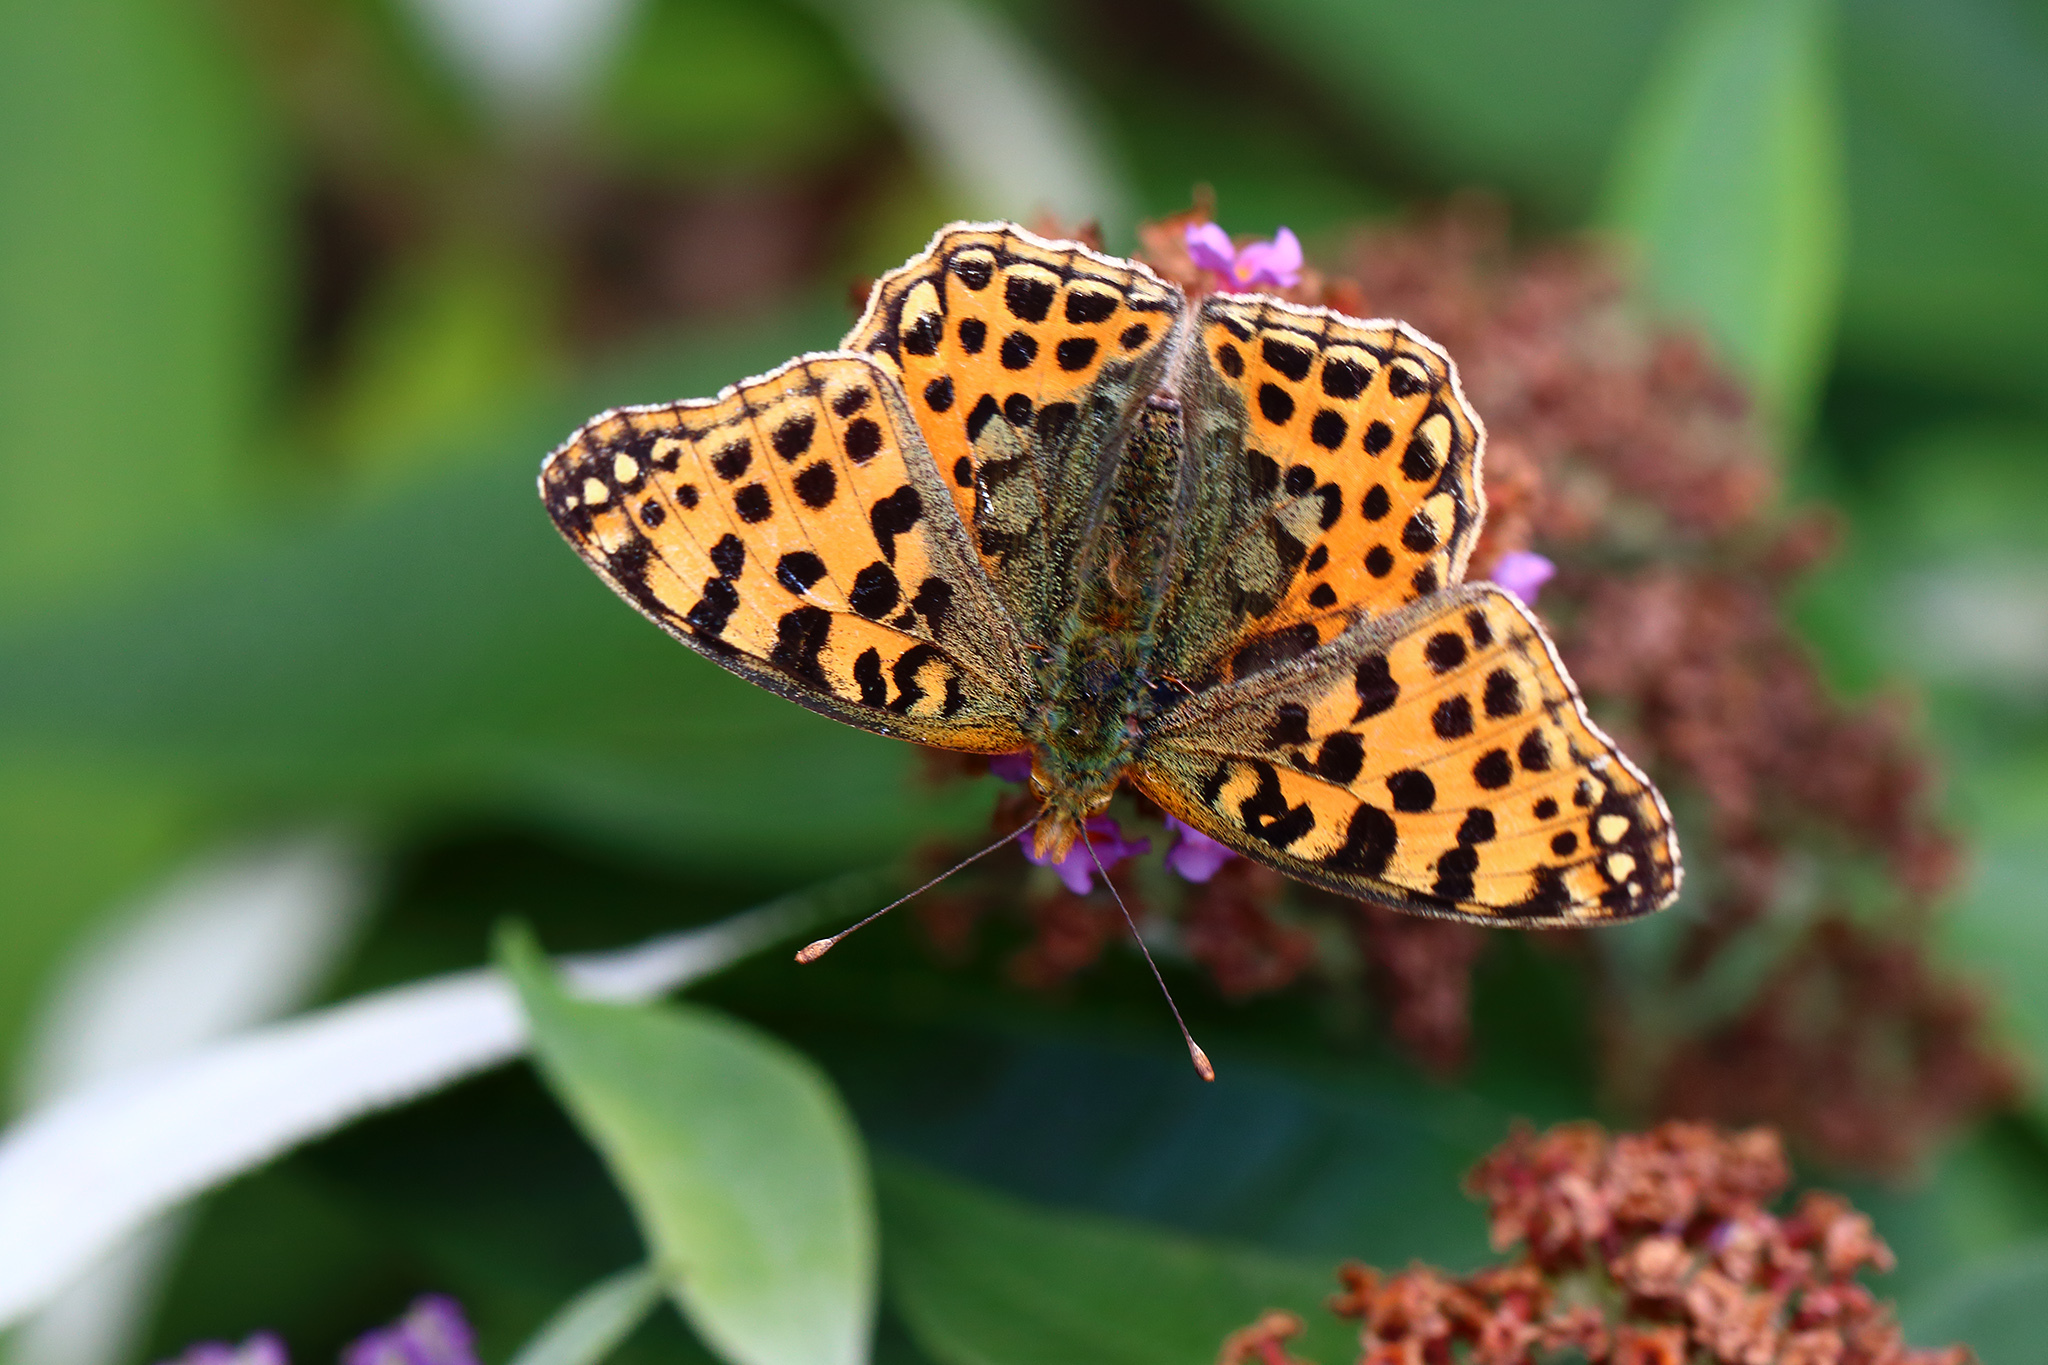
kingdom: Animalia
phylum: Arthropoda
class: Insecta
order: Lepidoptera
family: Nymphalidae
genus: Issoria
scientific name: Issoria lathonia
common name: Queen of spain fritillary
